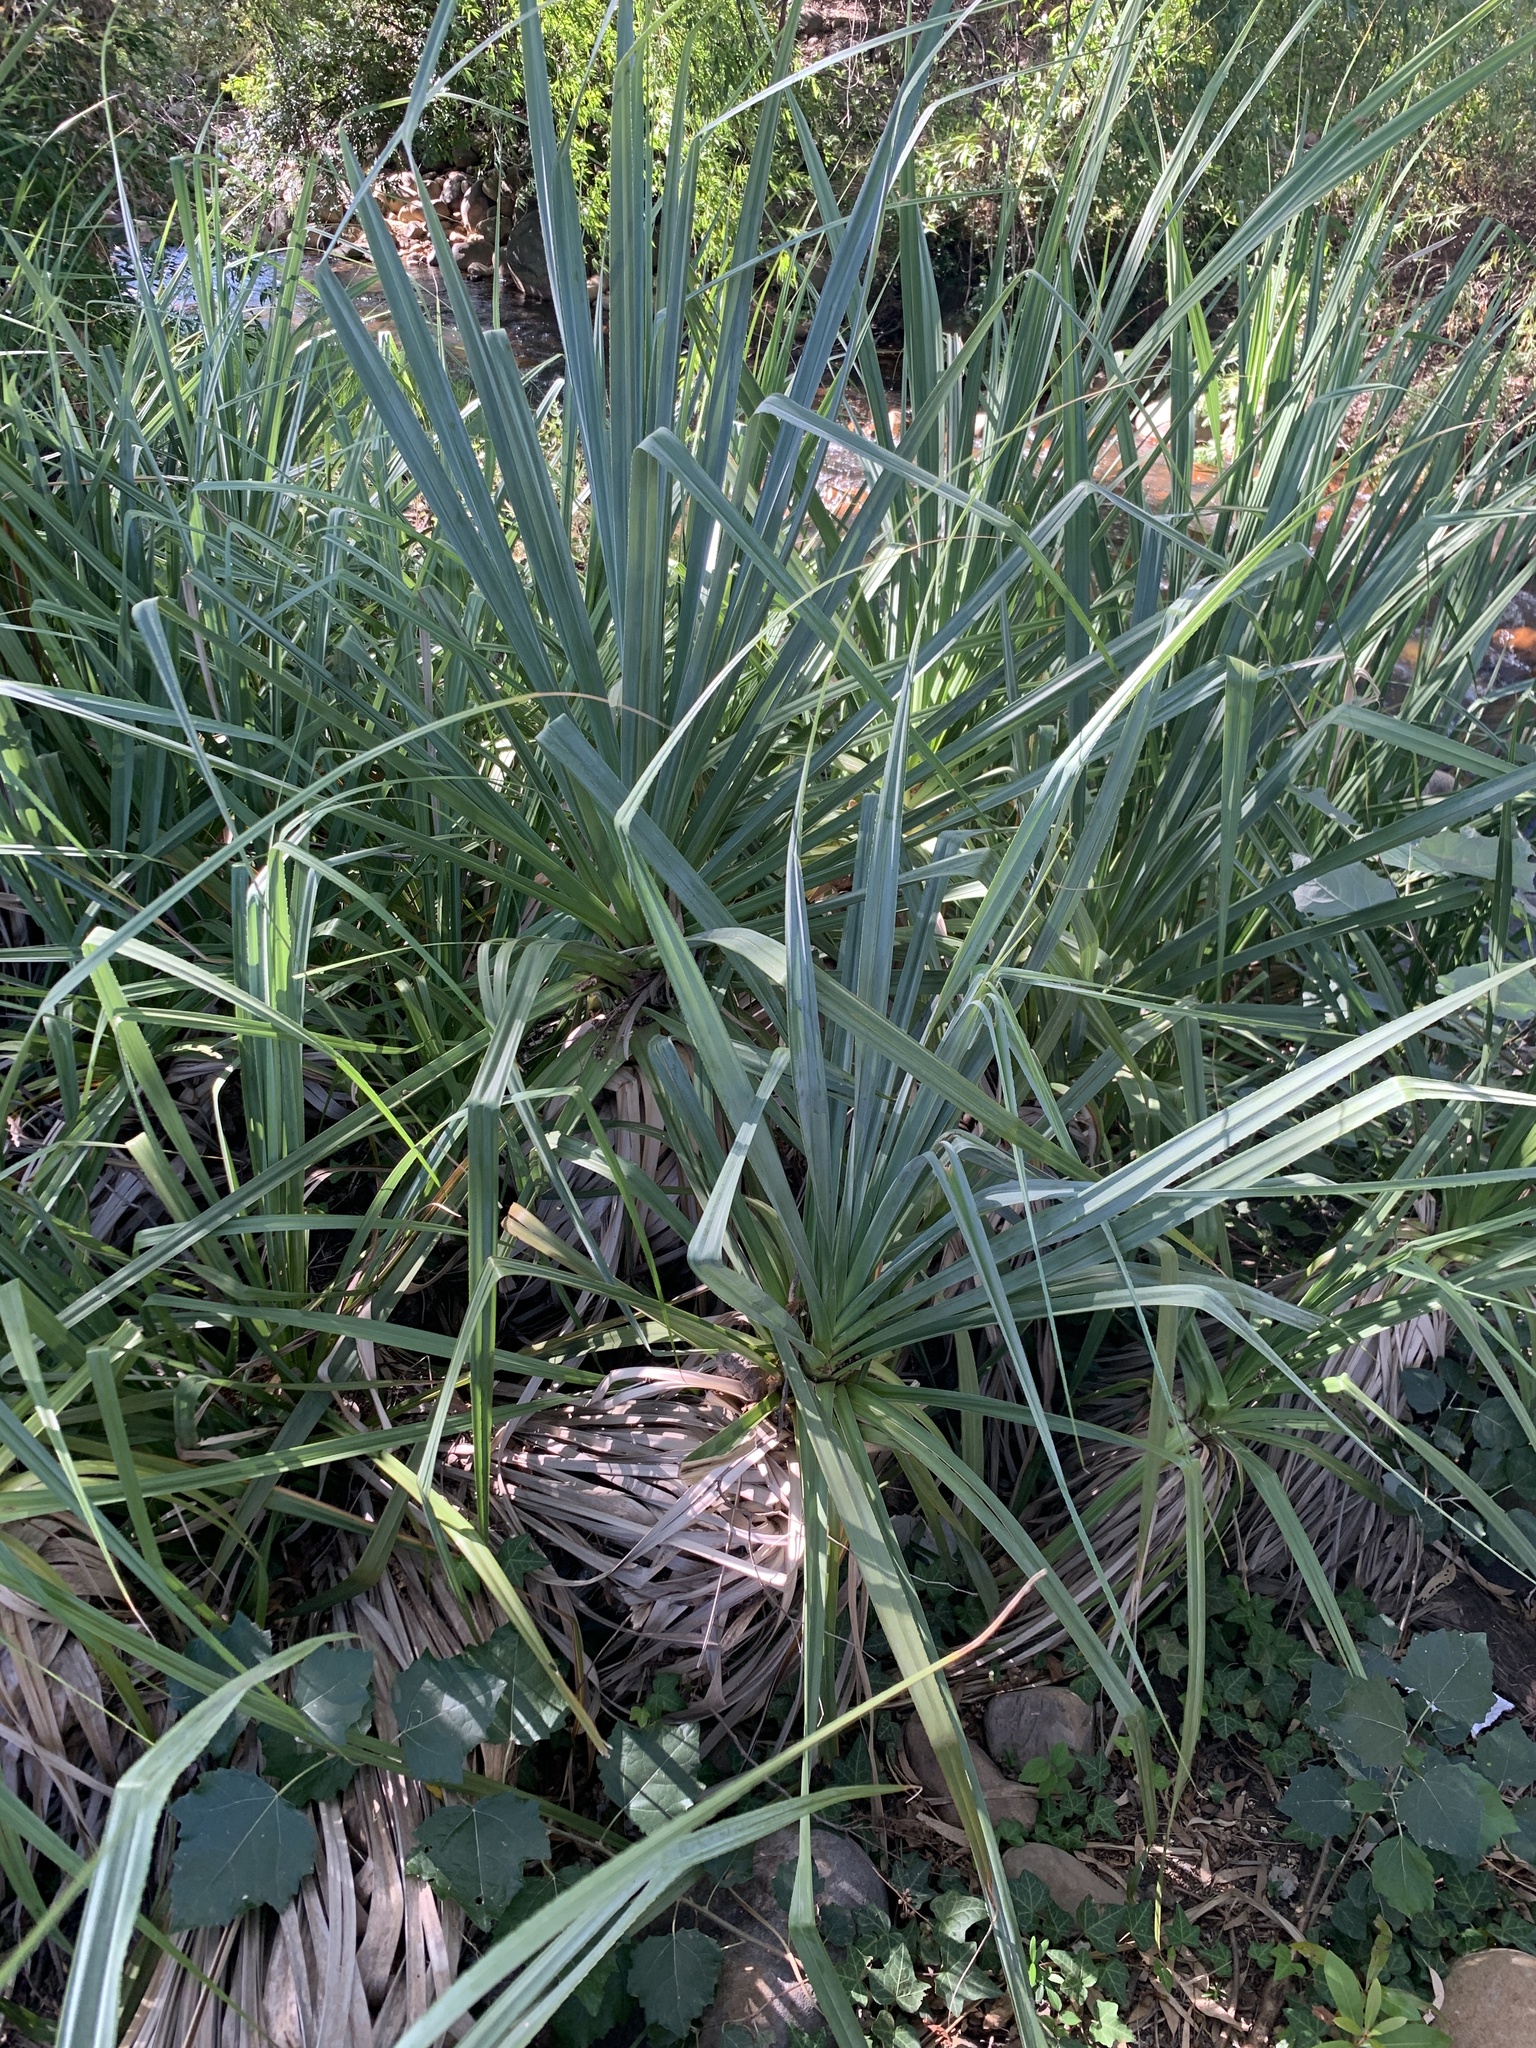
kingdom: Plantae
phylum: Tracheophyta
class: Liliopsida
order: Poales
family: Thurniaceae
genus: Prionium
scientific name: Prionium serratum
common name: Palmiet
